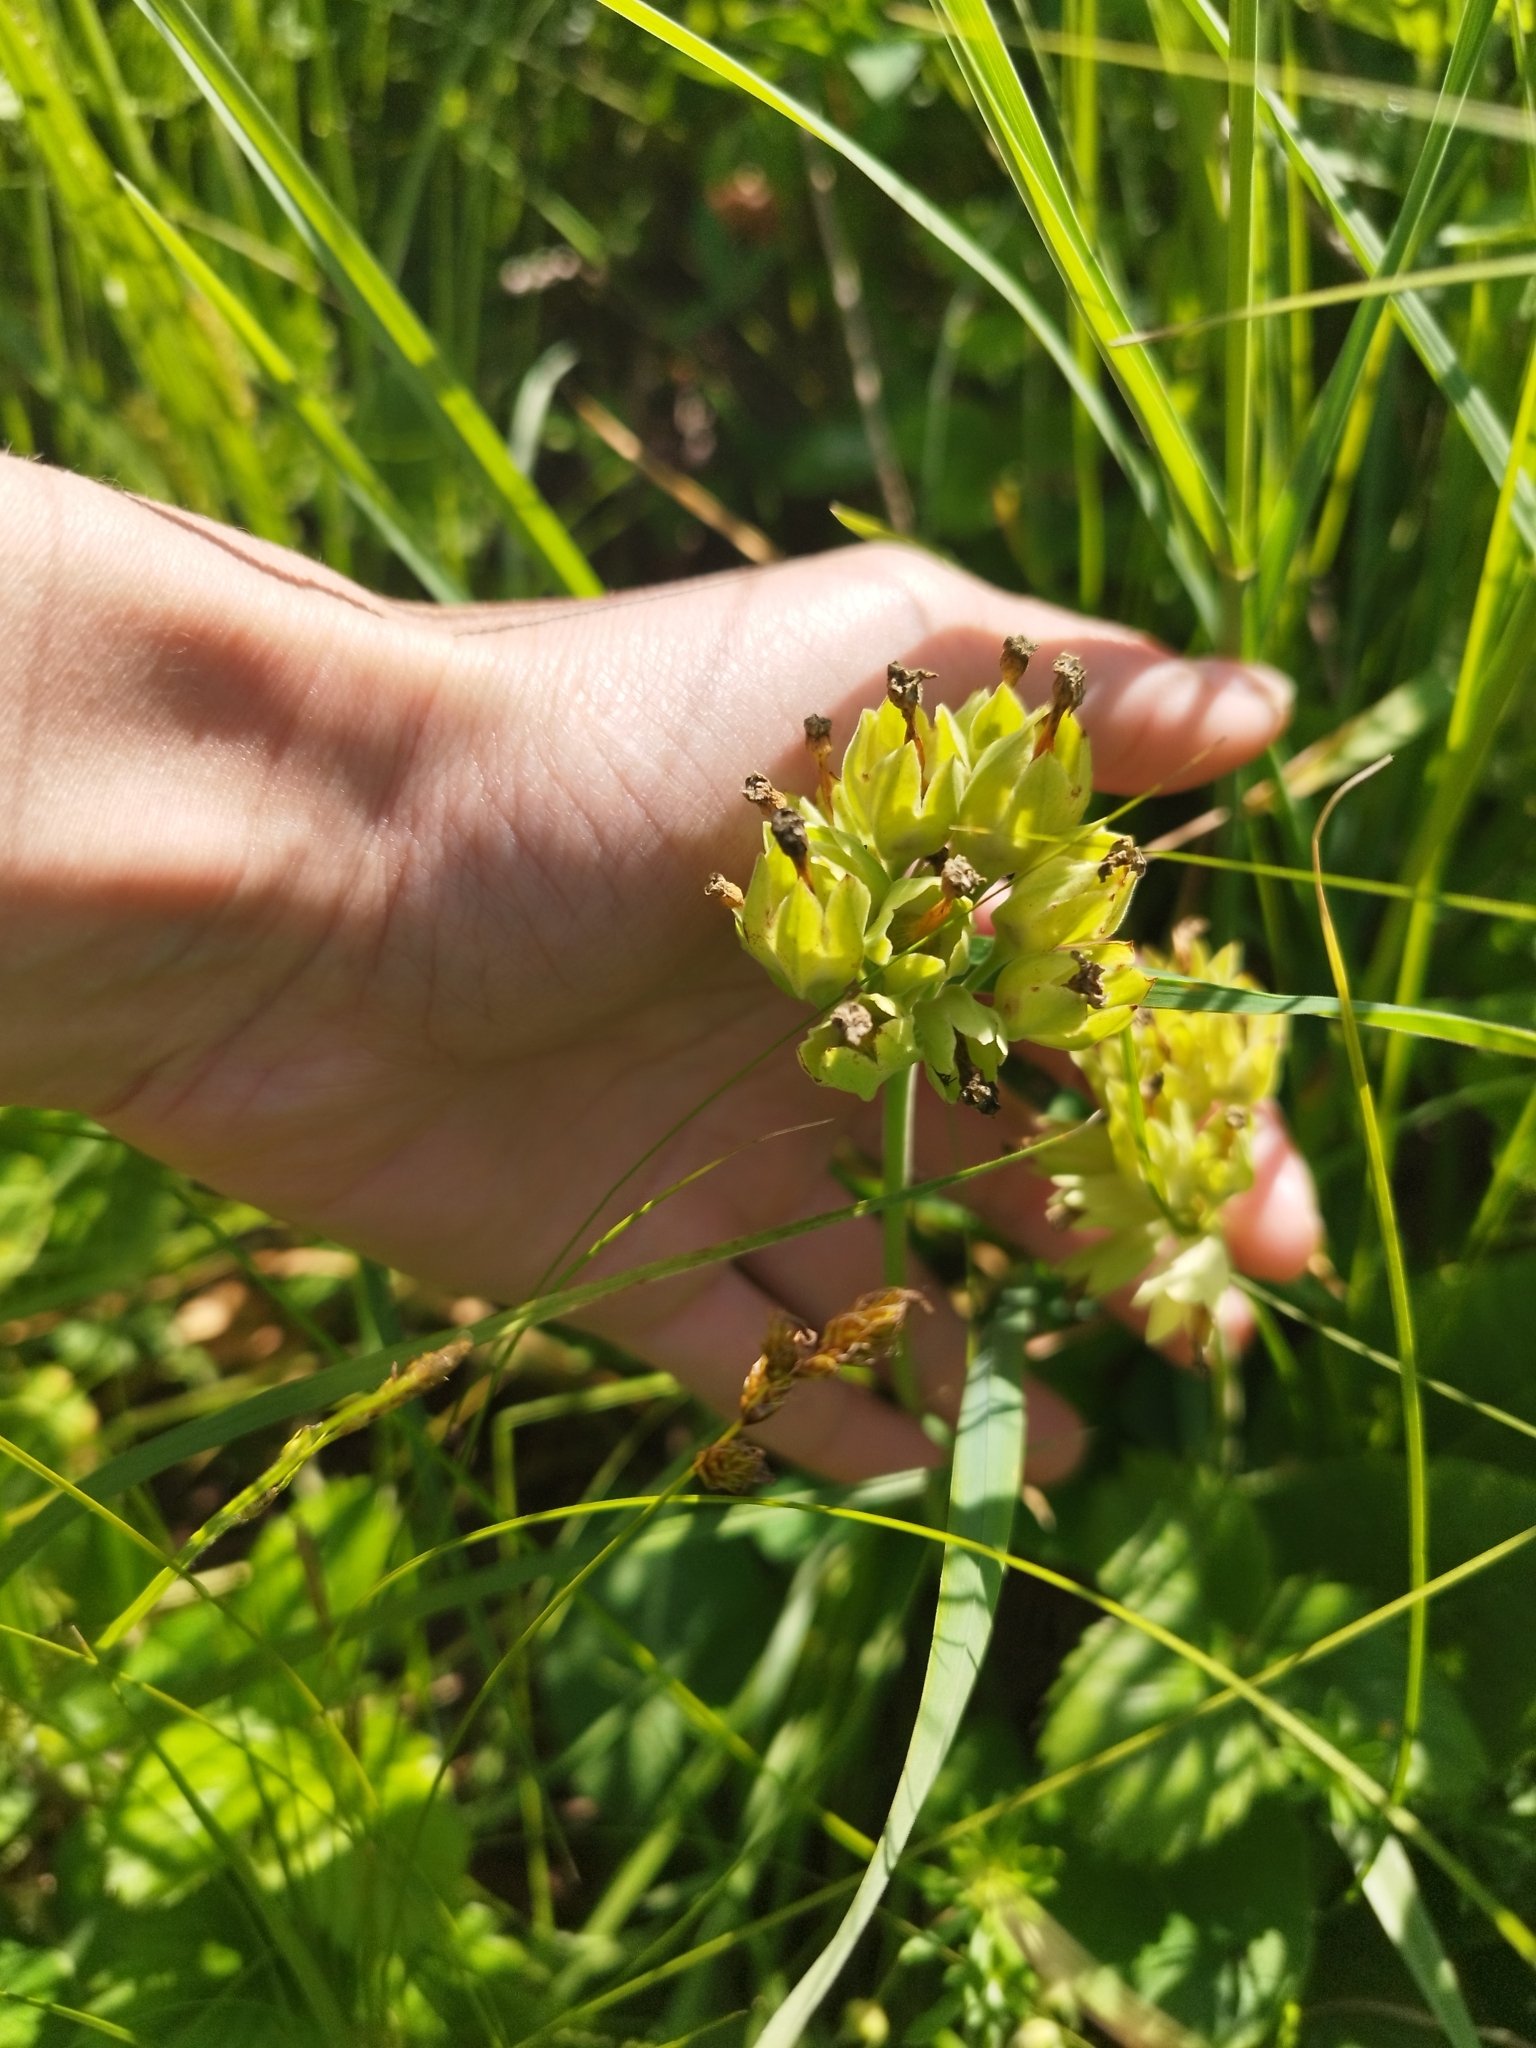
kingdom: Plantae
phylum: Tracheophyta
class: Magnoliopsida
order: Ericales
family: Primulaceae
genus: Primula
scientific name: Primula veris
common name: Cowslip
